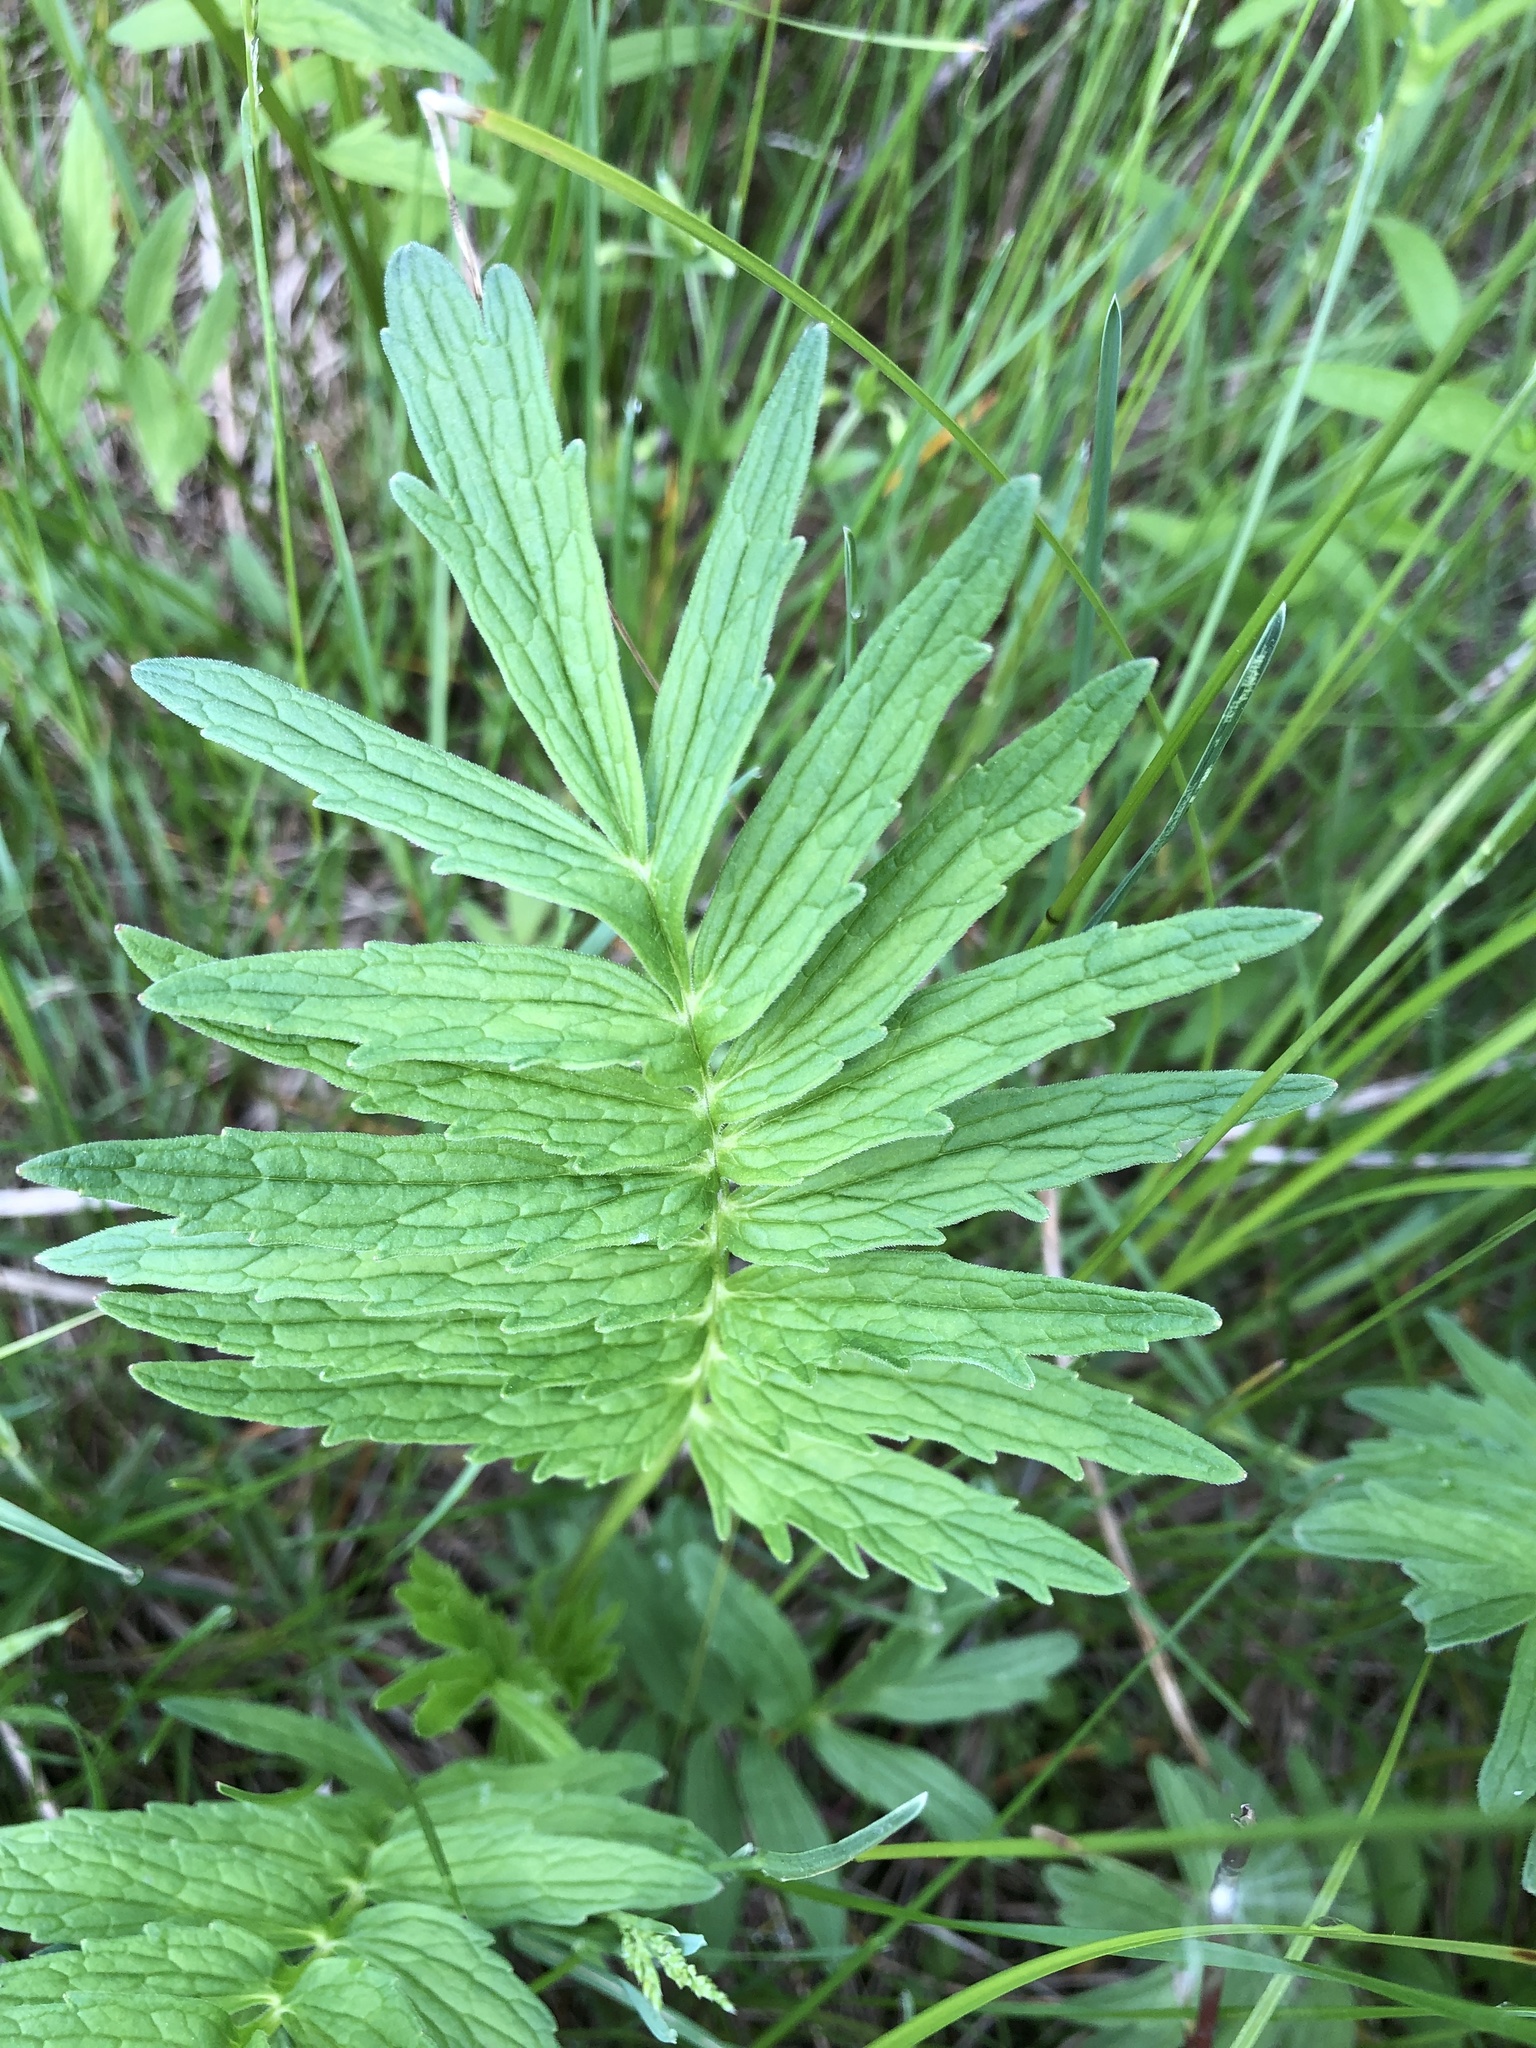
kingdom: Plantae
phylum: Tracheophyta
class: Magnoliopsida
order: Dipsacales
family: Caprifoliaceae
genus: Valeriana
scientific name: Valeriana officinalis
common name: Common valerian
